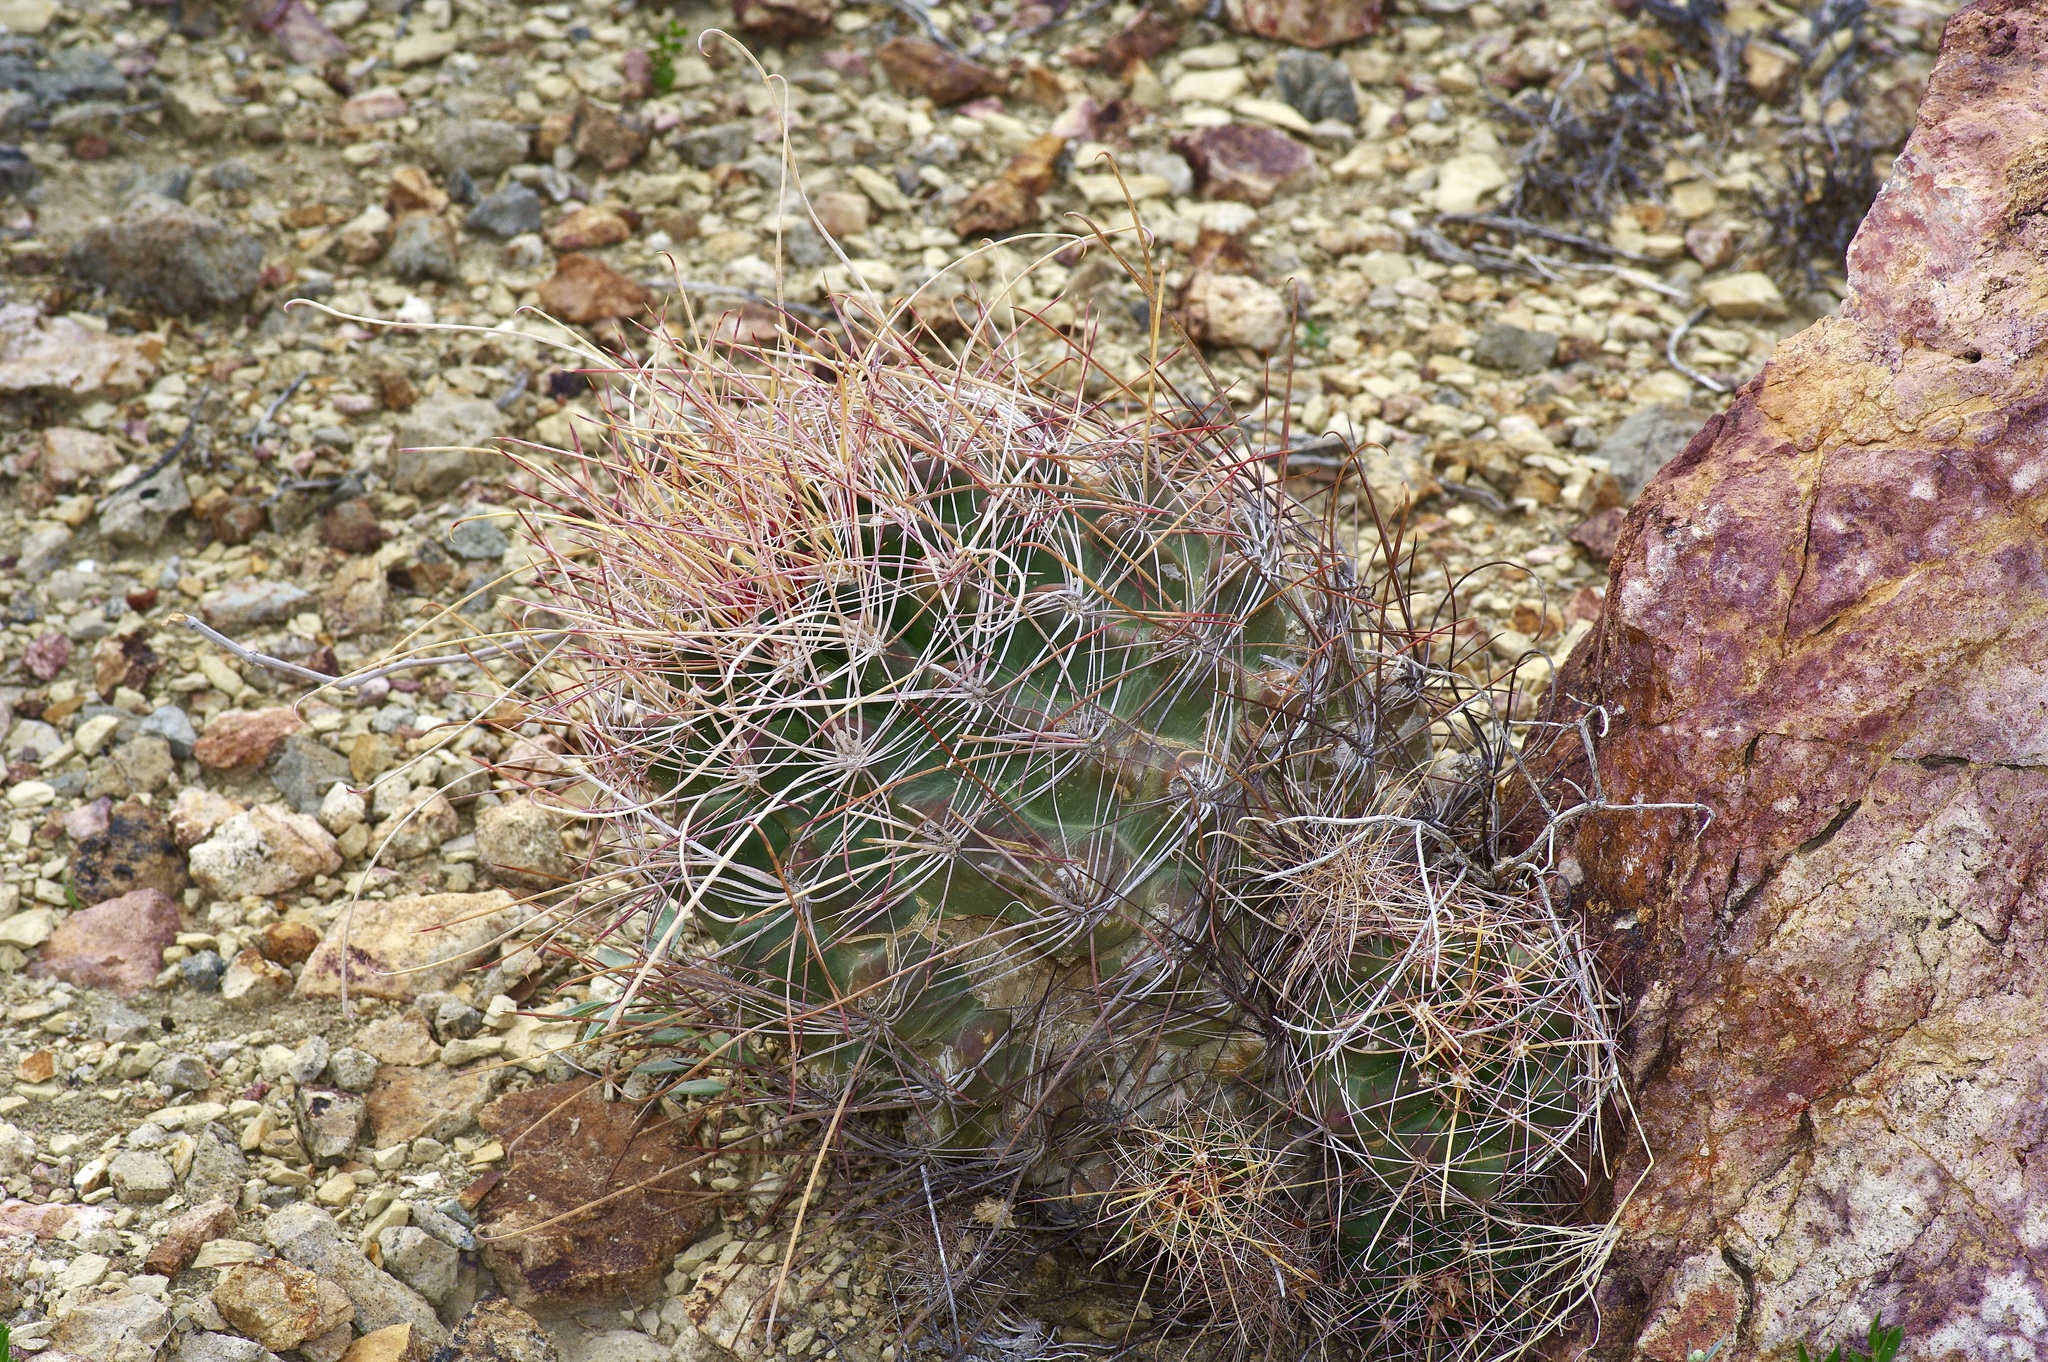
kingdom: Plantae
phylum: Tracheophyta
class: Magnoliopsida
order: Caryophyllales
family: Cactaceae
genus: Bisnaga
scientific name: Bisnaga hamatacantha
